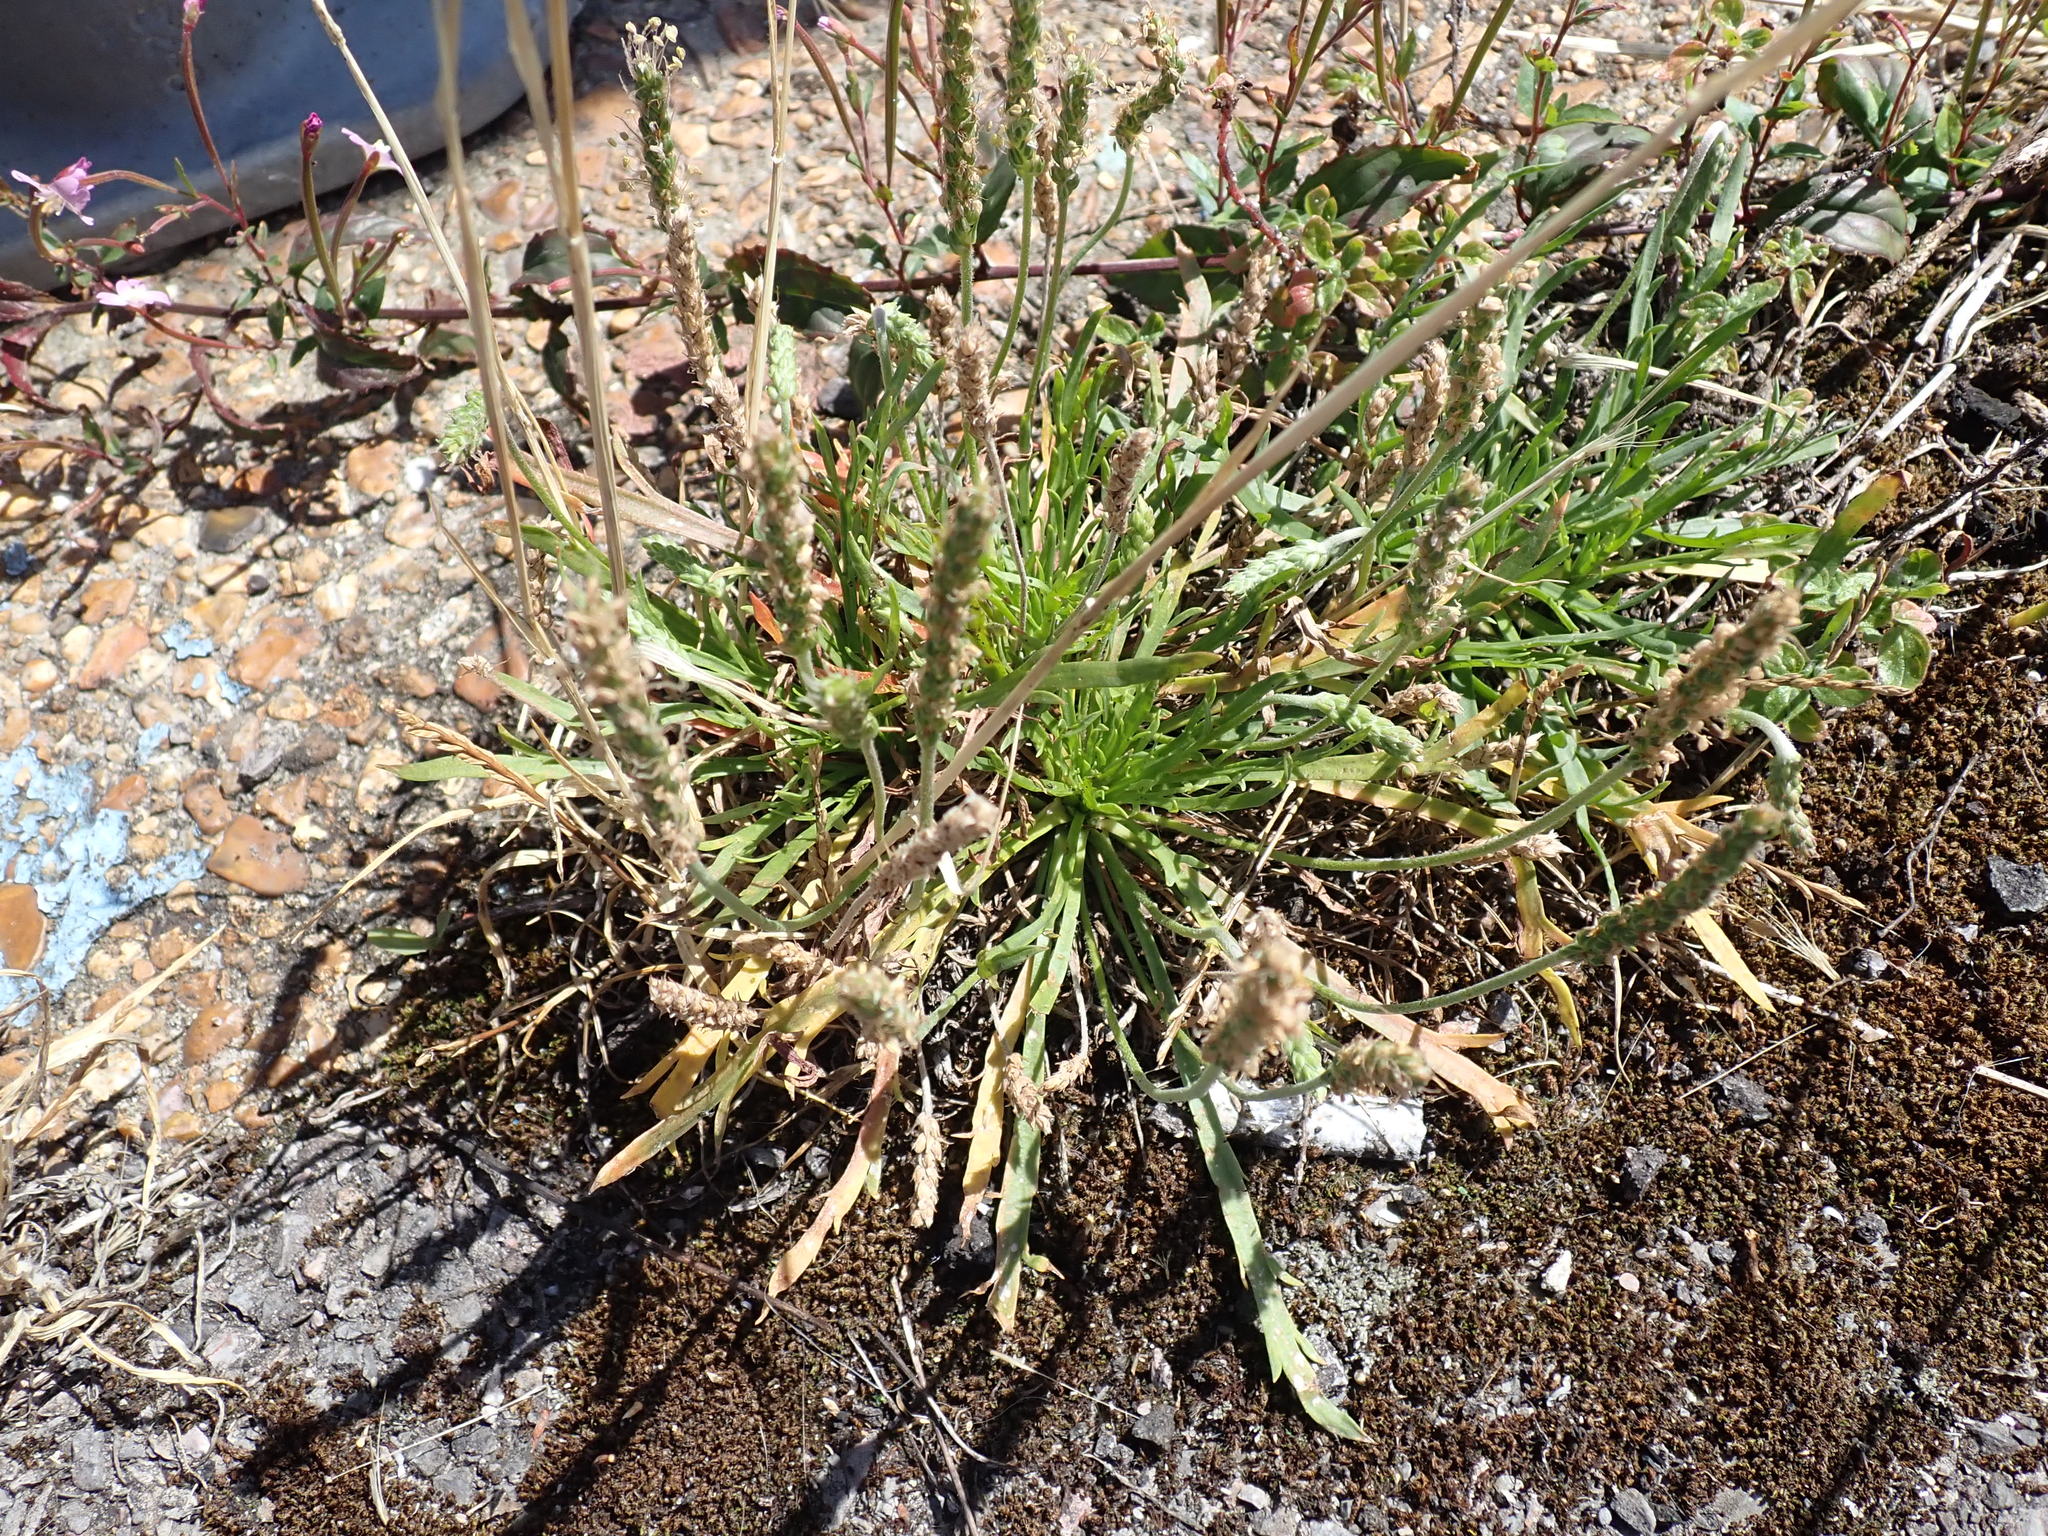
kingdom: Plantae
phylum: Tracheophyta
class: Magnoliopsida
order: Lamiales
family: Plantaginaceae
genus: Plantago
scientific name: Plantago coronopus
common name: Buck's-horn plantain
